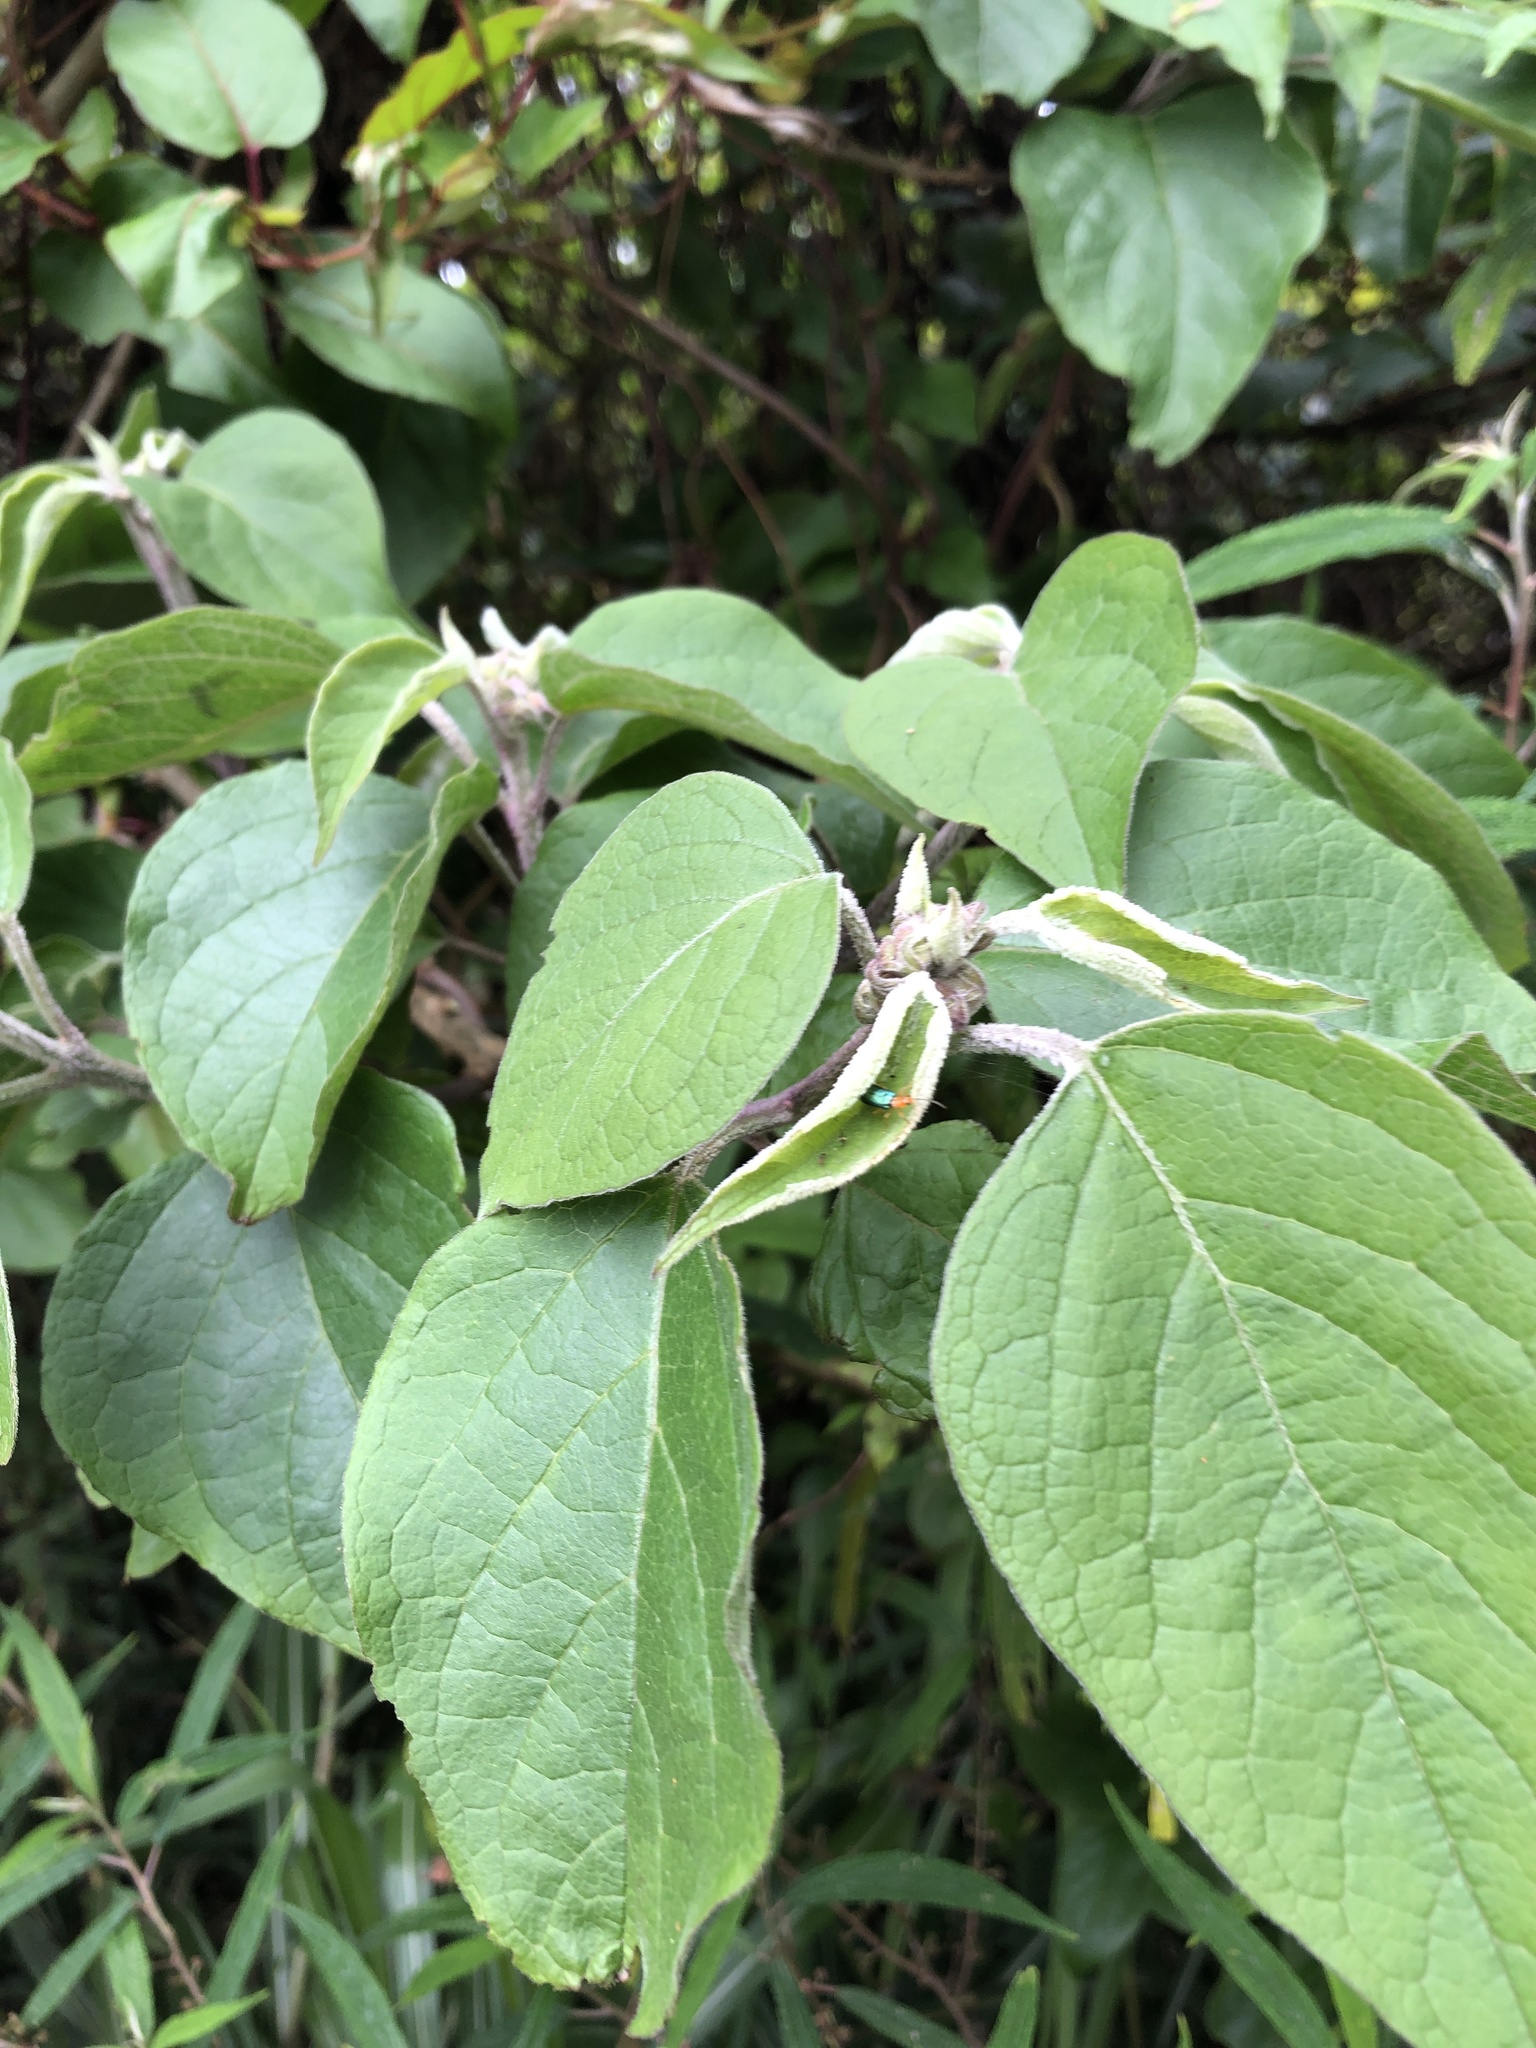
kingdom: Plantae
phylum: Tracheophyta
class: Magnoliopsida
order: Solanales
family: Solanaceae
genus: Solanum
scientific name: Solanum erianthum
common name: Tobacco-tree
